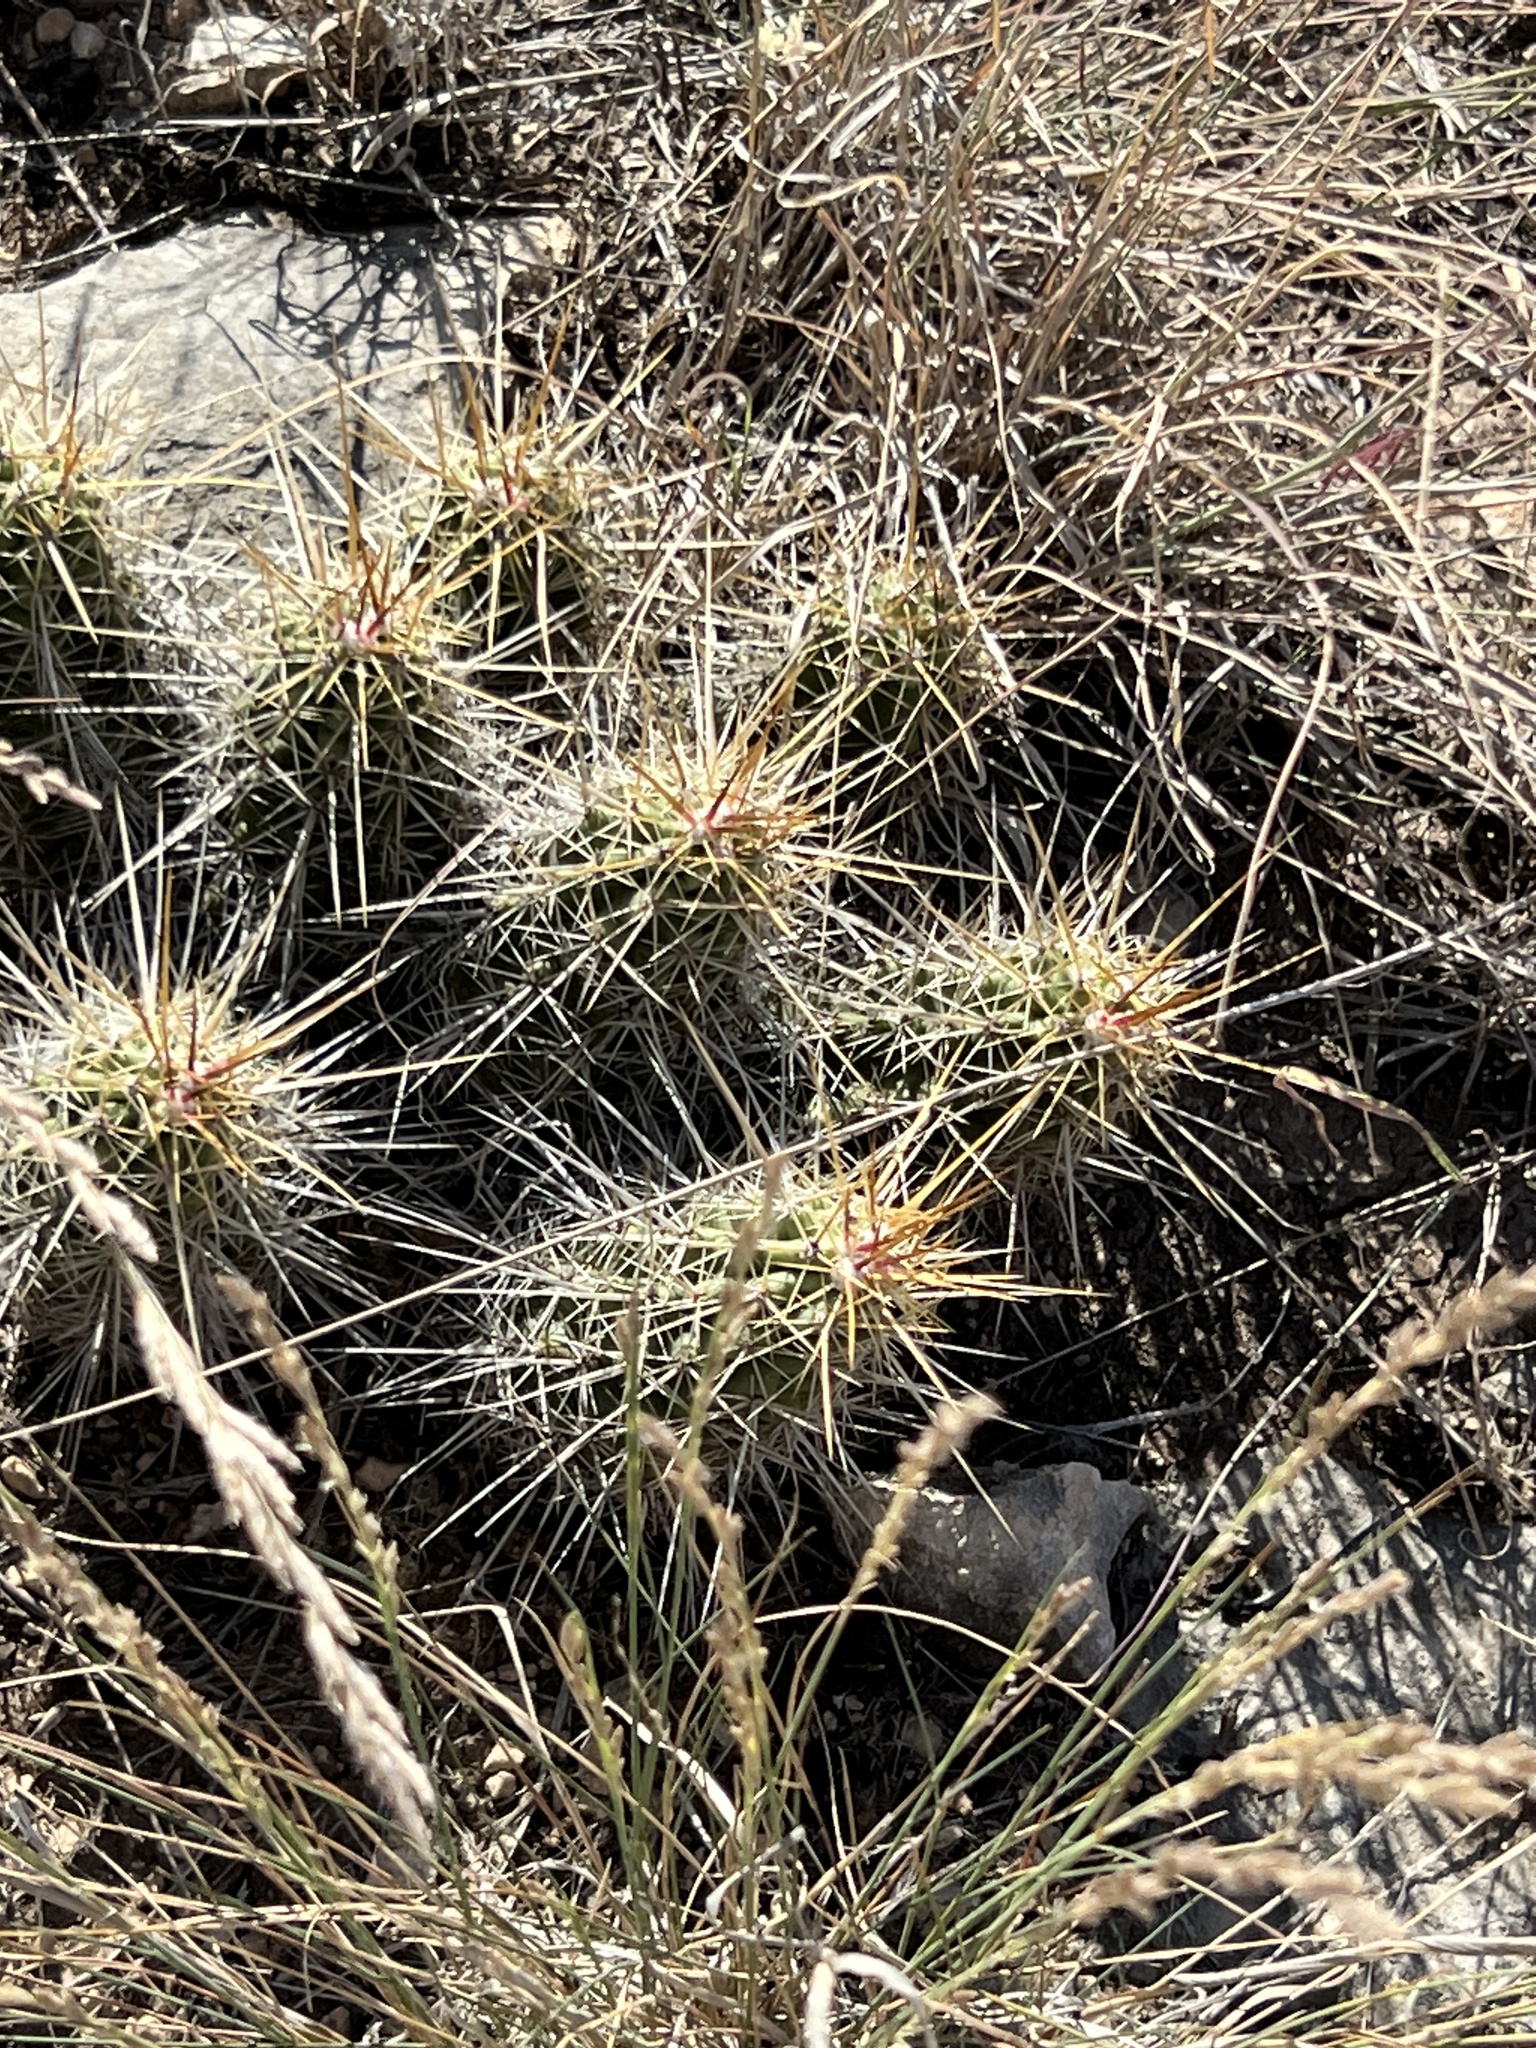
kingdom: Plantae
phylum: Tracheophyta
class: Magnoliopsida
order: Caryophyllales
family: Cactaceae
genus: Echinocereus
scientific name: Echinocereus enneacanthus
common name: Pitaya
